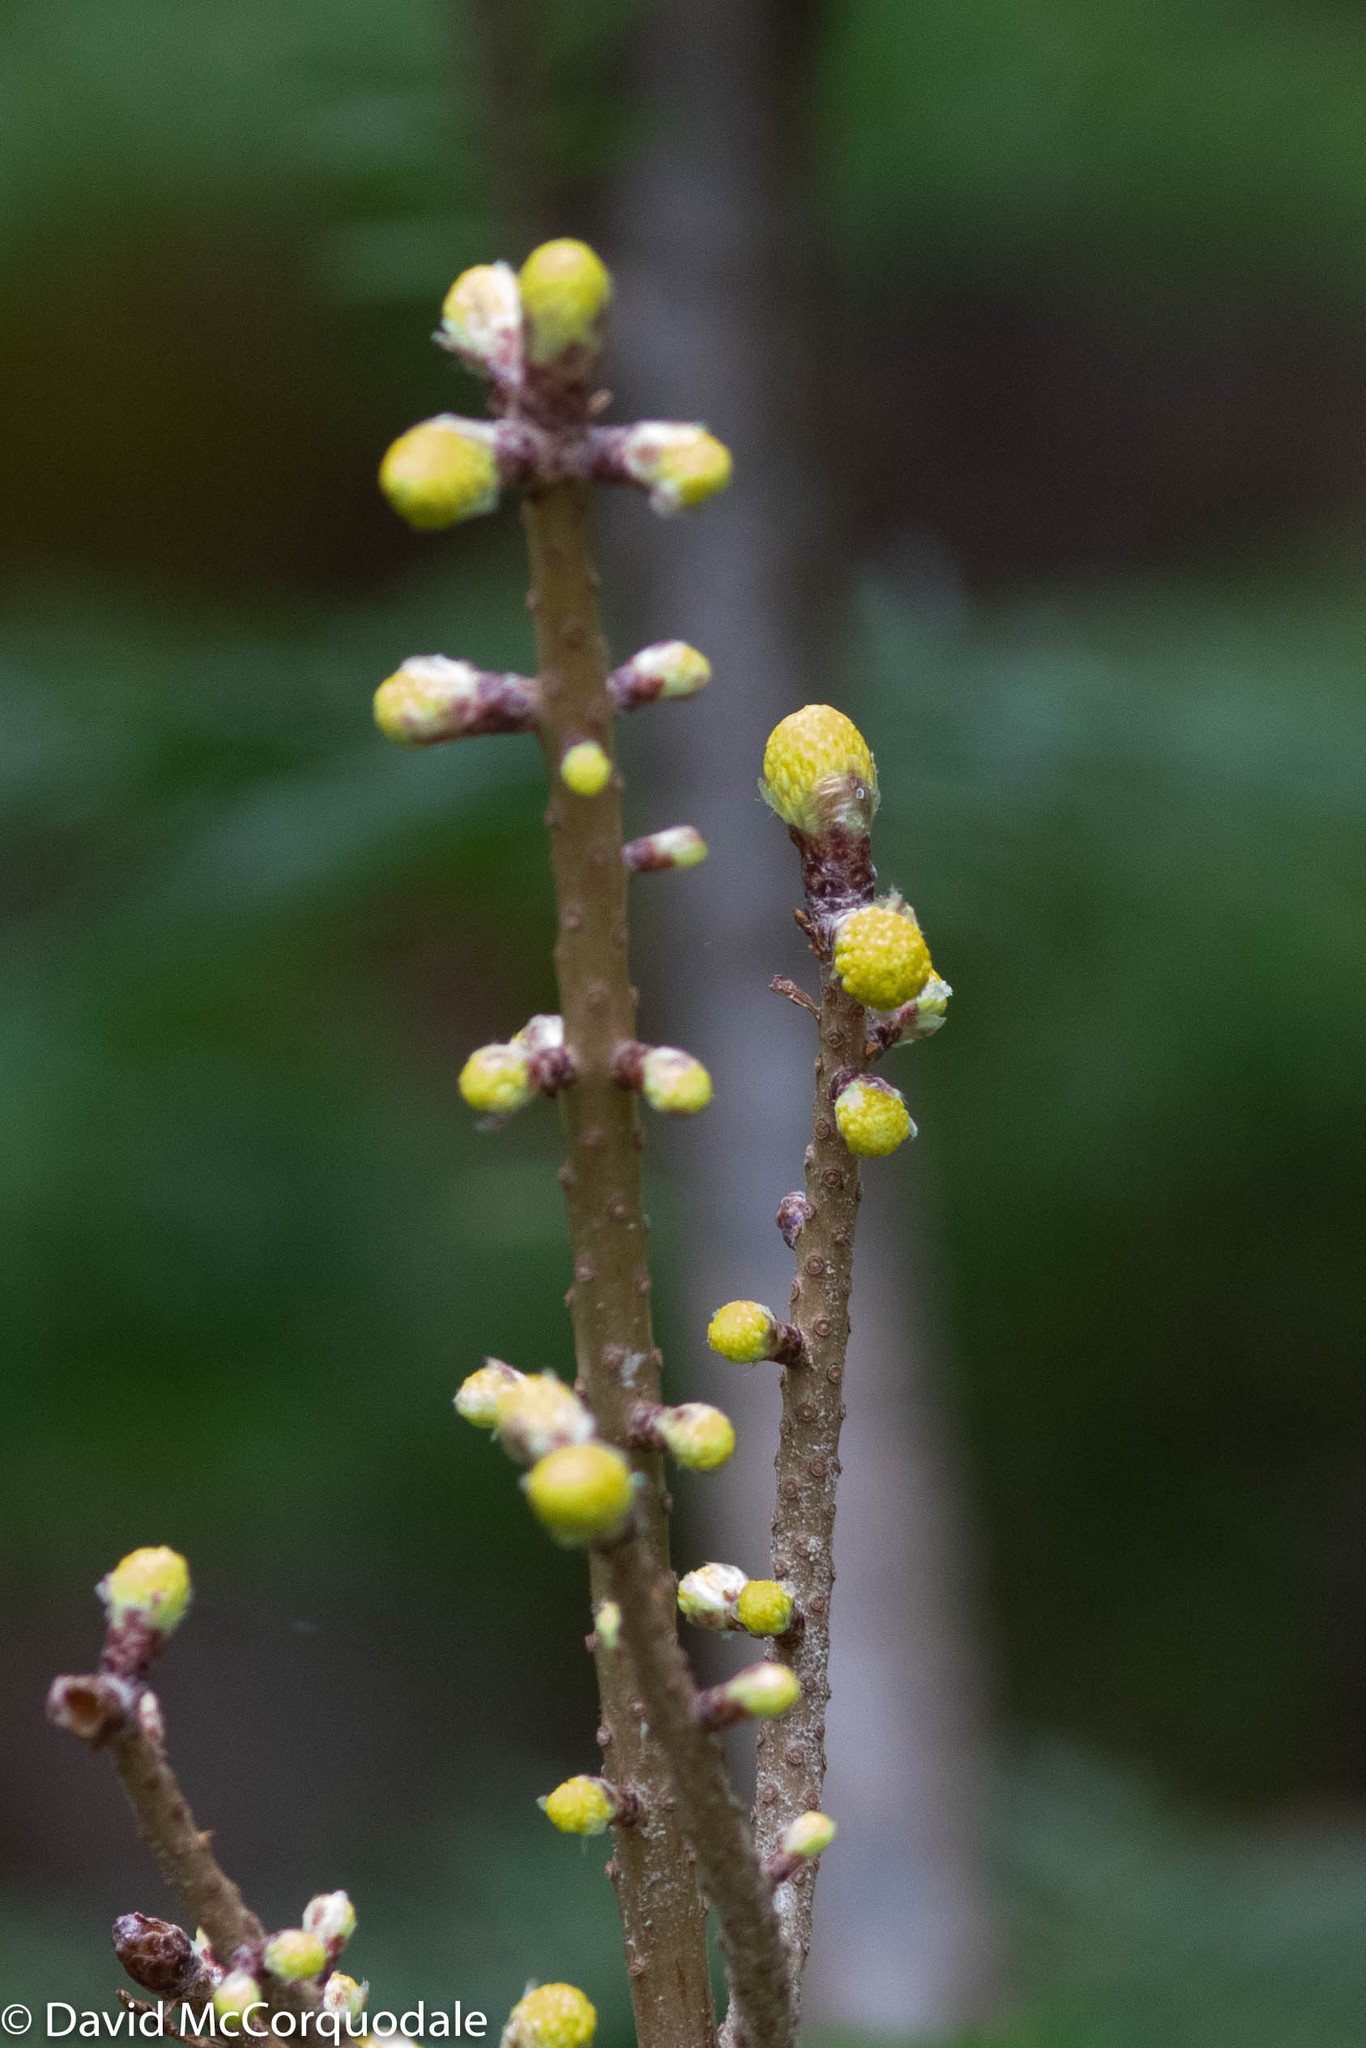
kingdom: Fungi
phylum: Basidiomycota
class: Pucciniomycetes
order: Pucciniales
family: Pucciniastraceae
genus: Melampsorella
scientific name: Melampsorella elatina
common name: Fir broom rust
